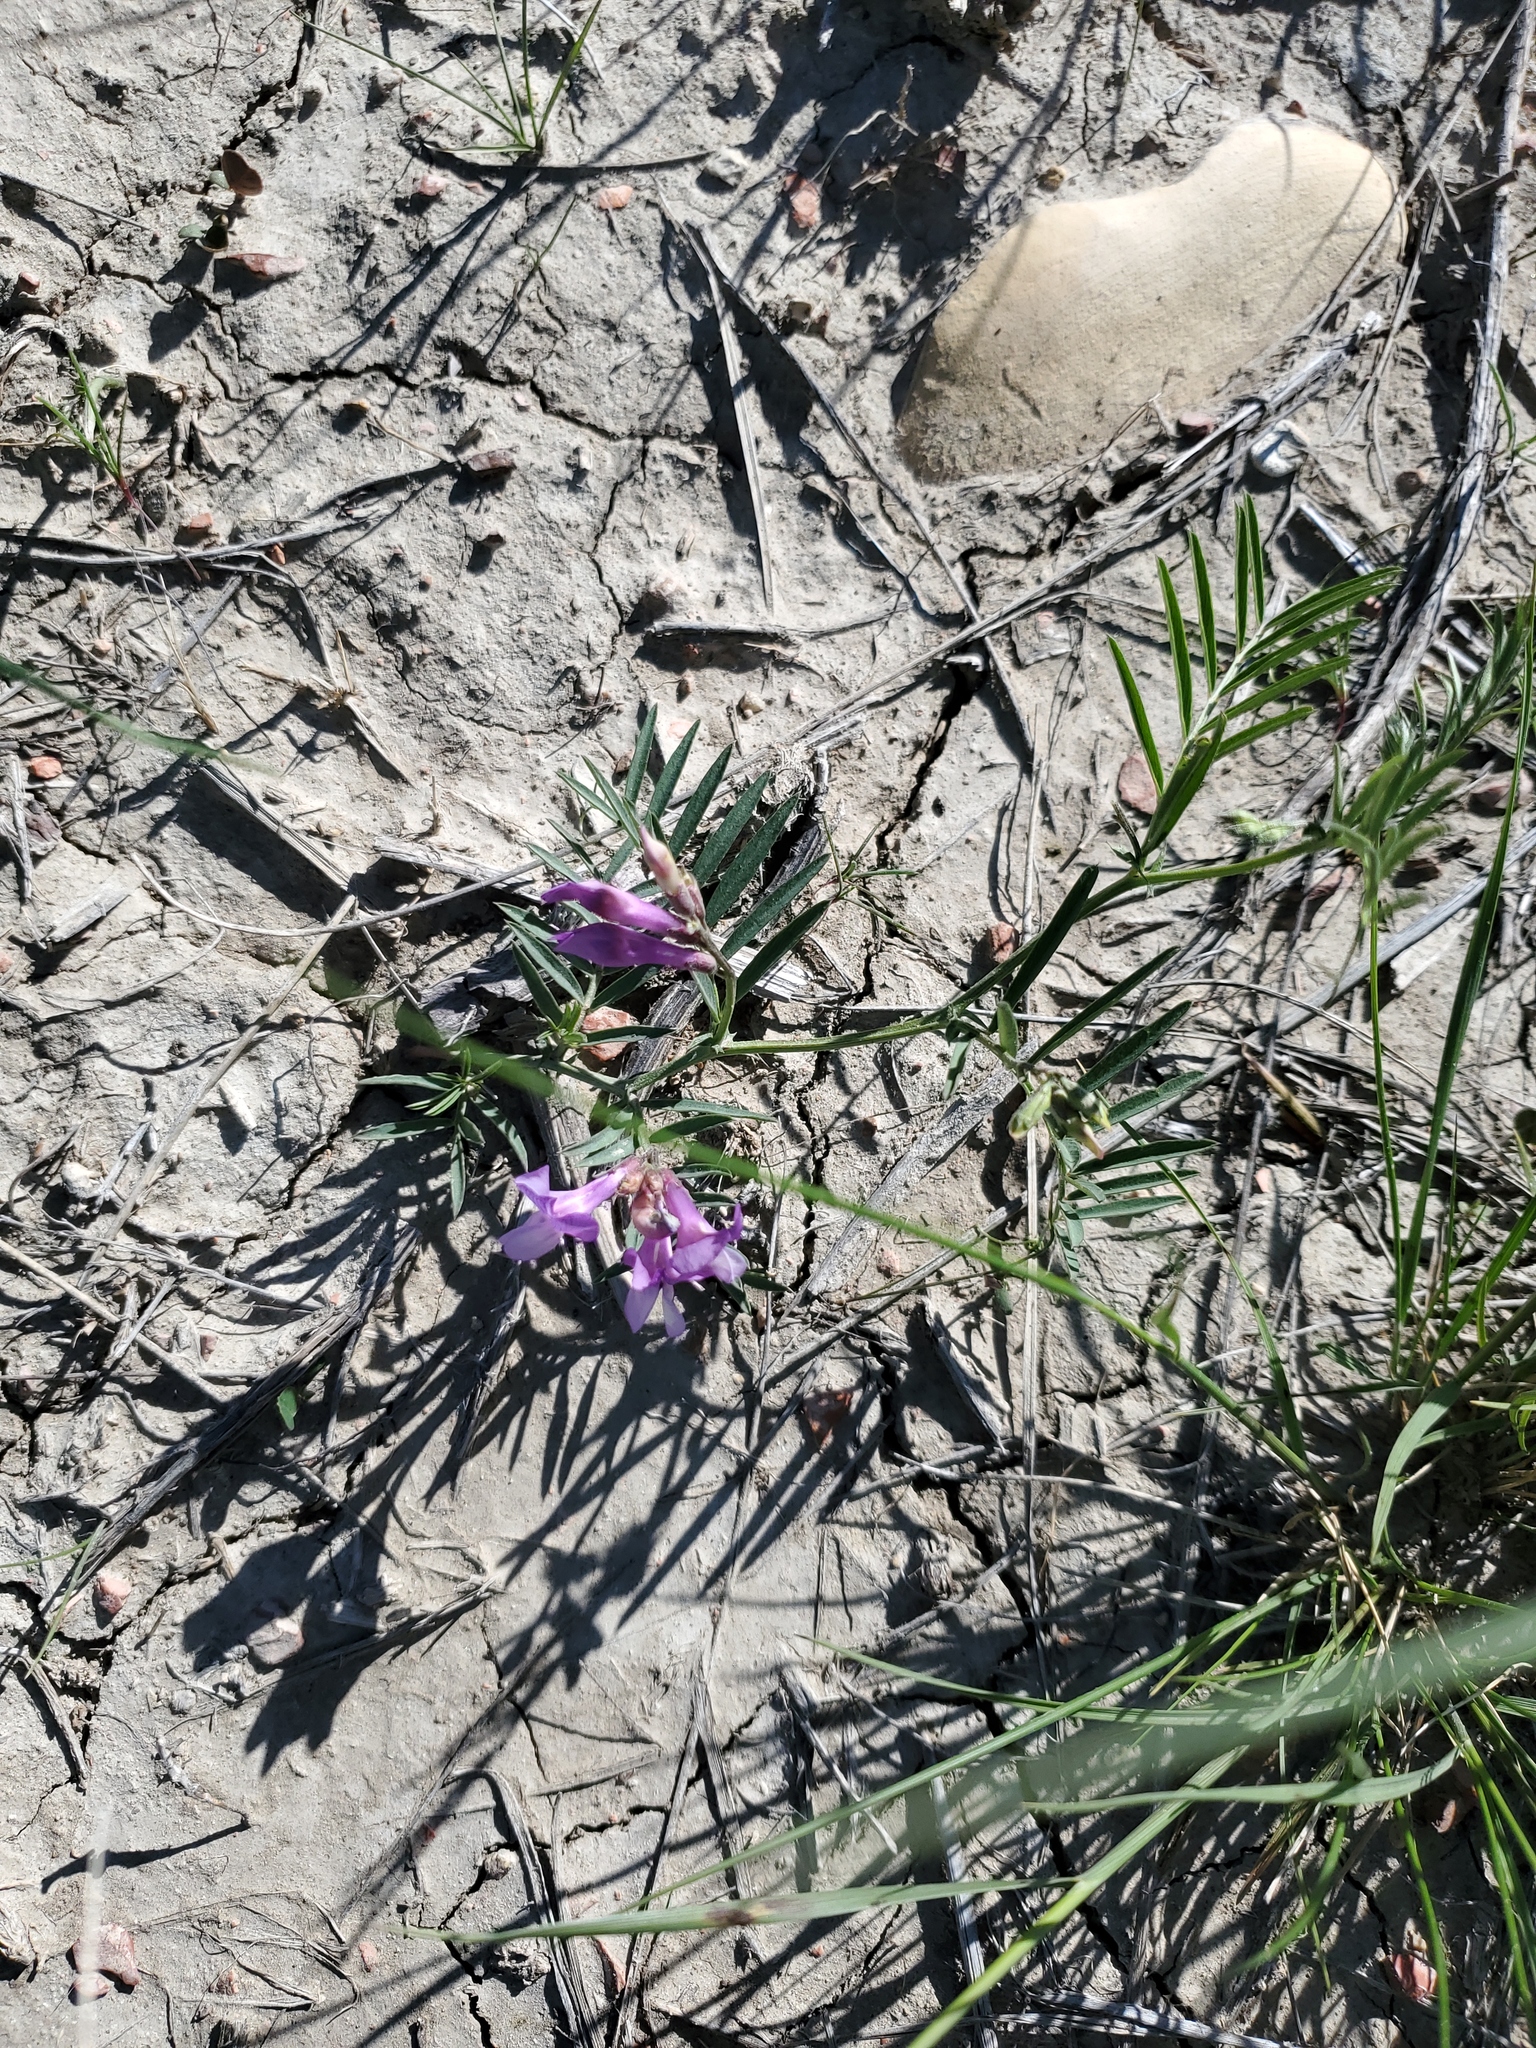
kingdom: Plantae
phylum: Tracheophyta
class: Magnoliopsida
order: Fabales
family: Fabaceae
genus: Vicia
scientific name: Vicia americana
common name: American vetch
